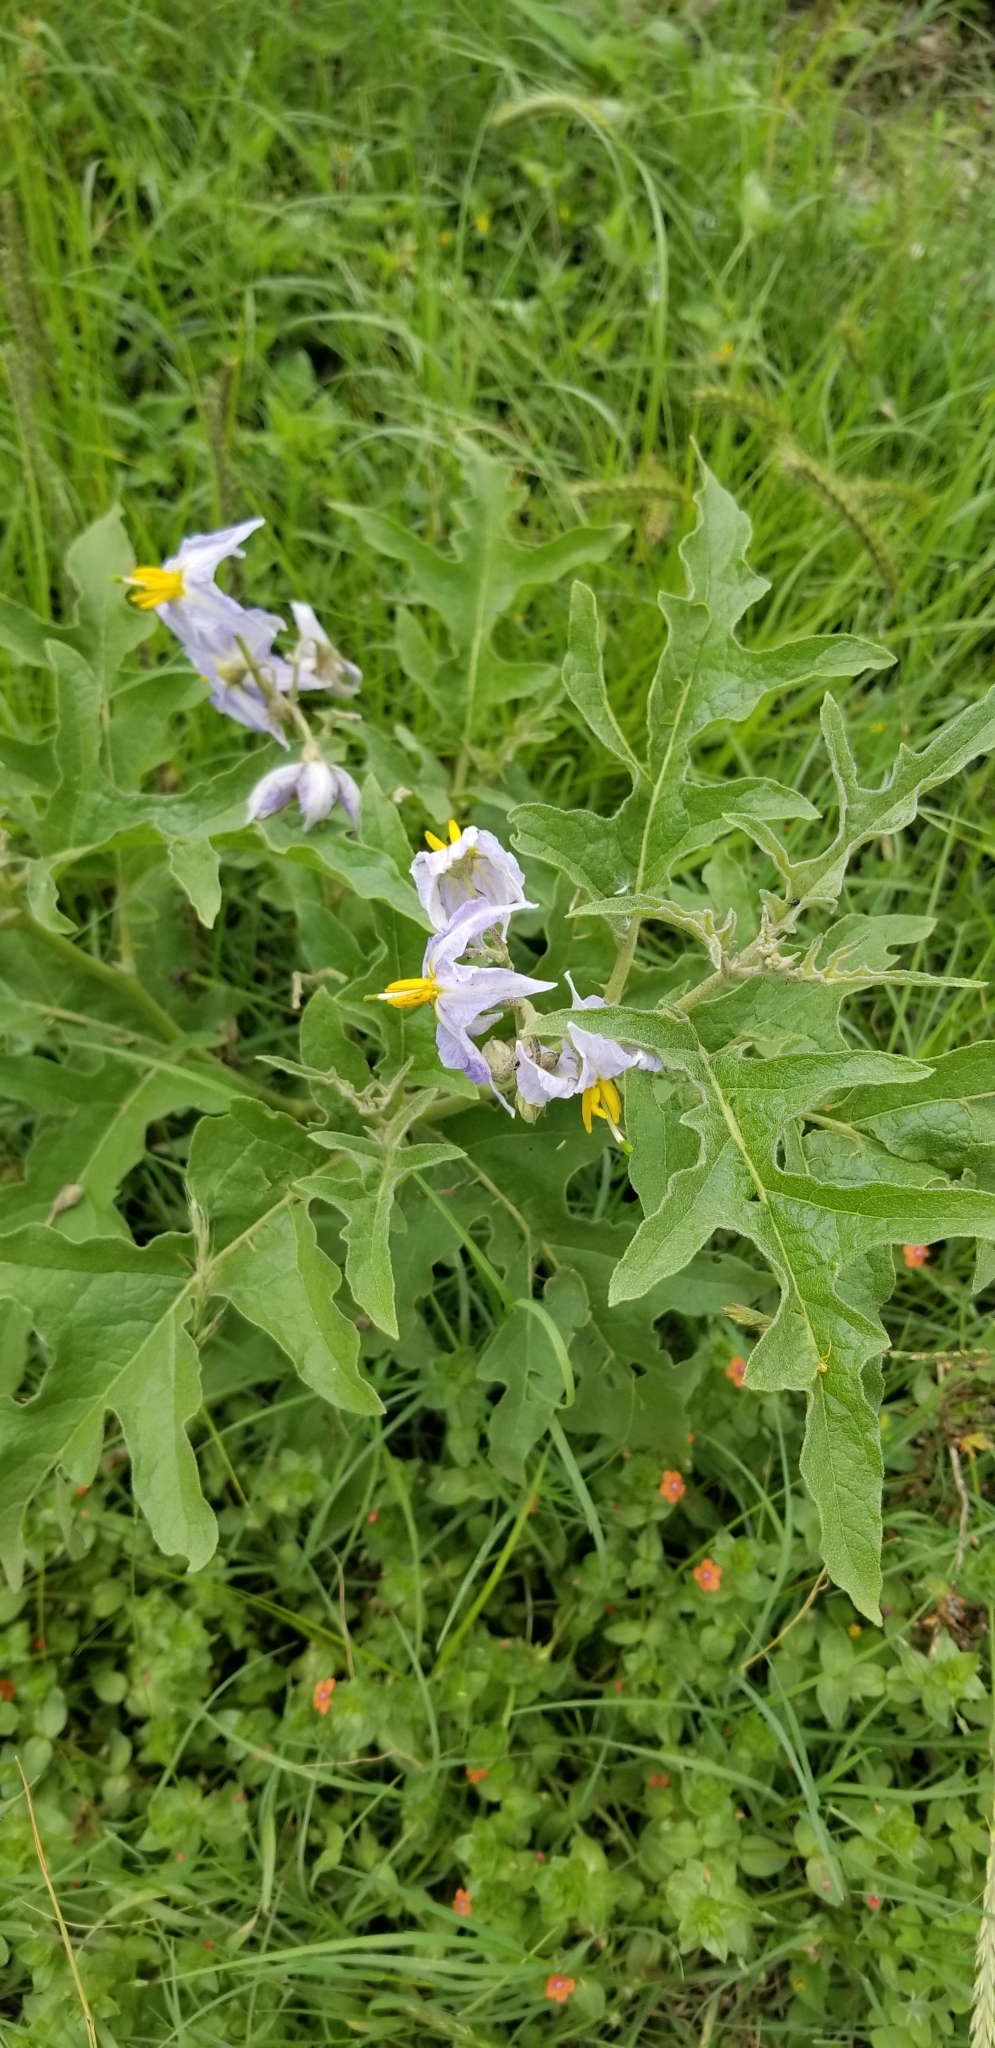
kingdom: Plantae
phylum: Tracheophyta
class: Magnoliopsida
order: Solanales
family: Solanaceae
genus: Solanum
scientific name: Solanum dimidiatum
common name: Carolina horse-nettle
